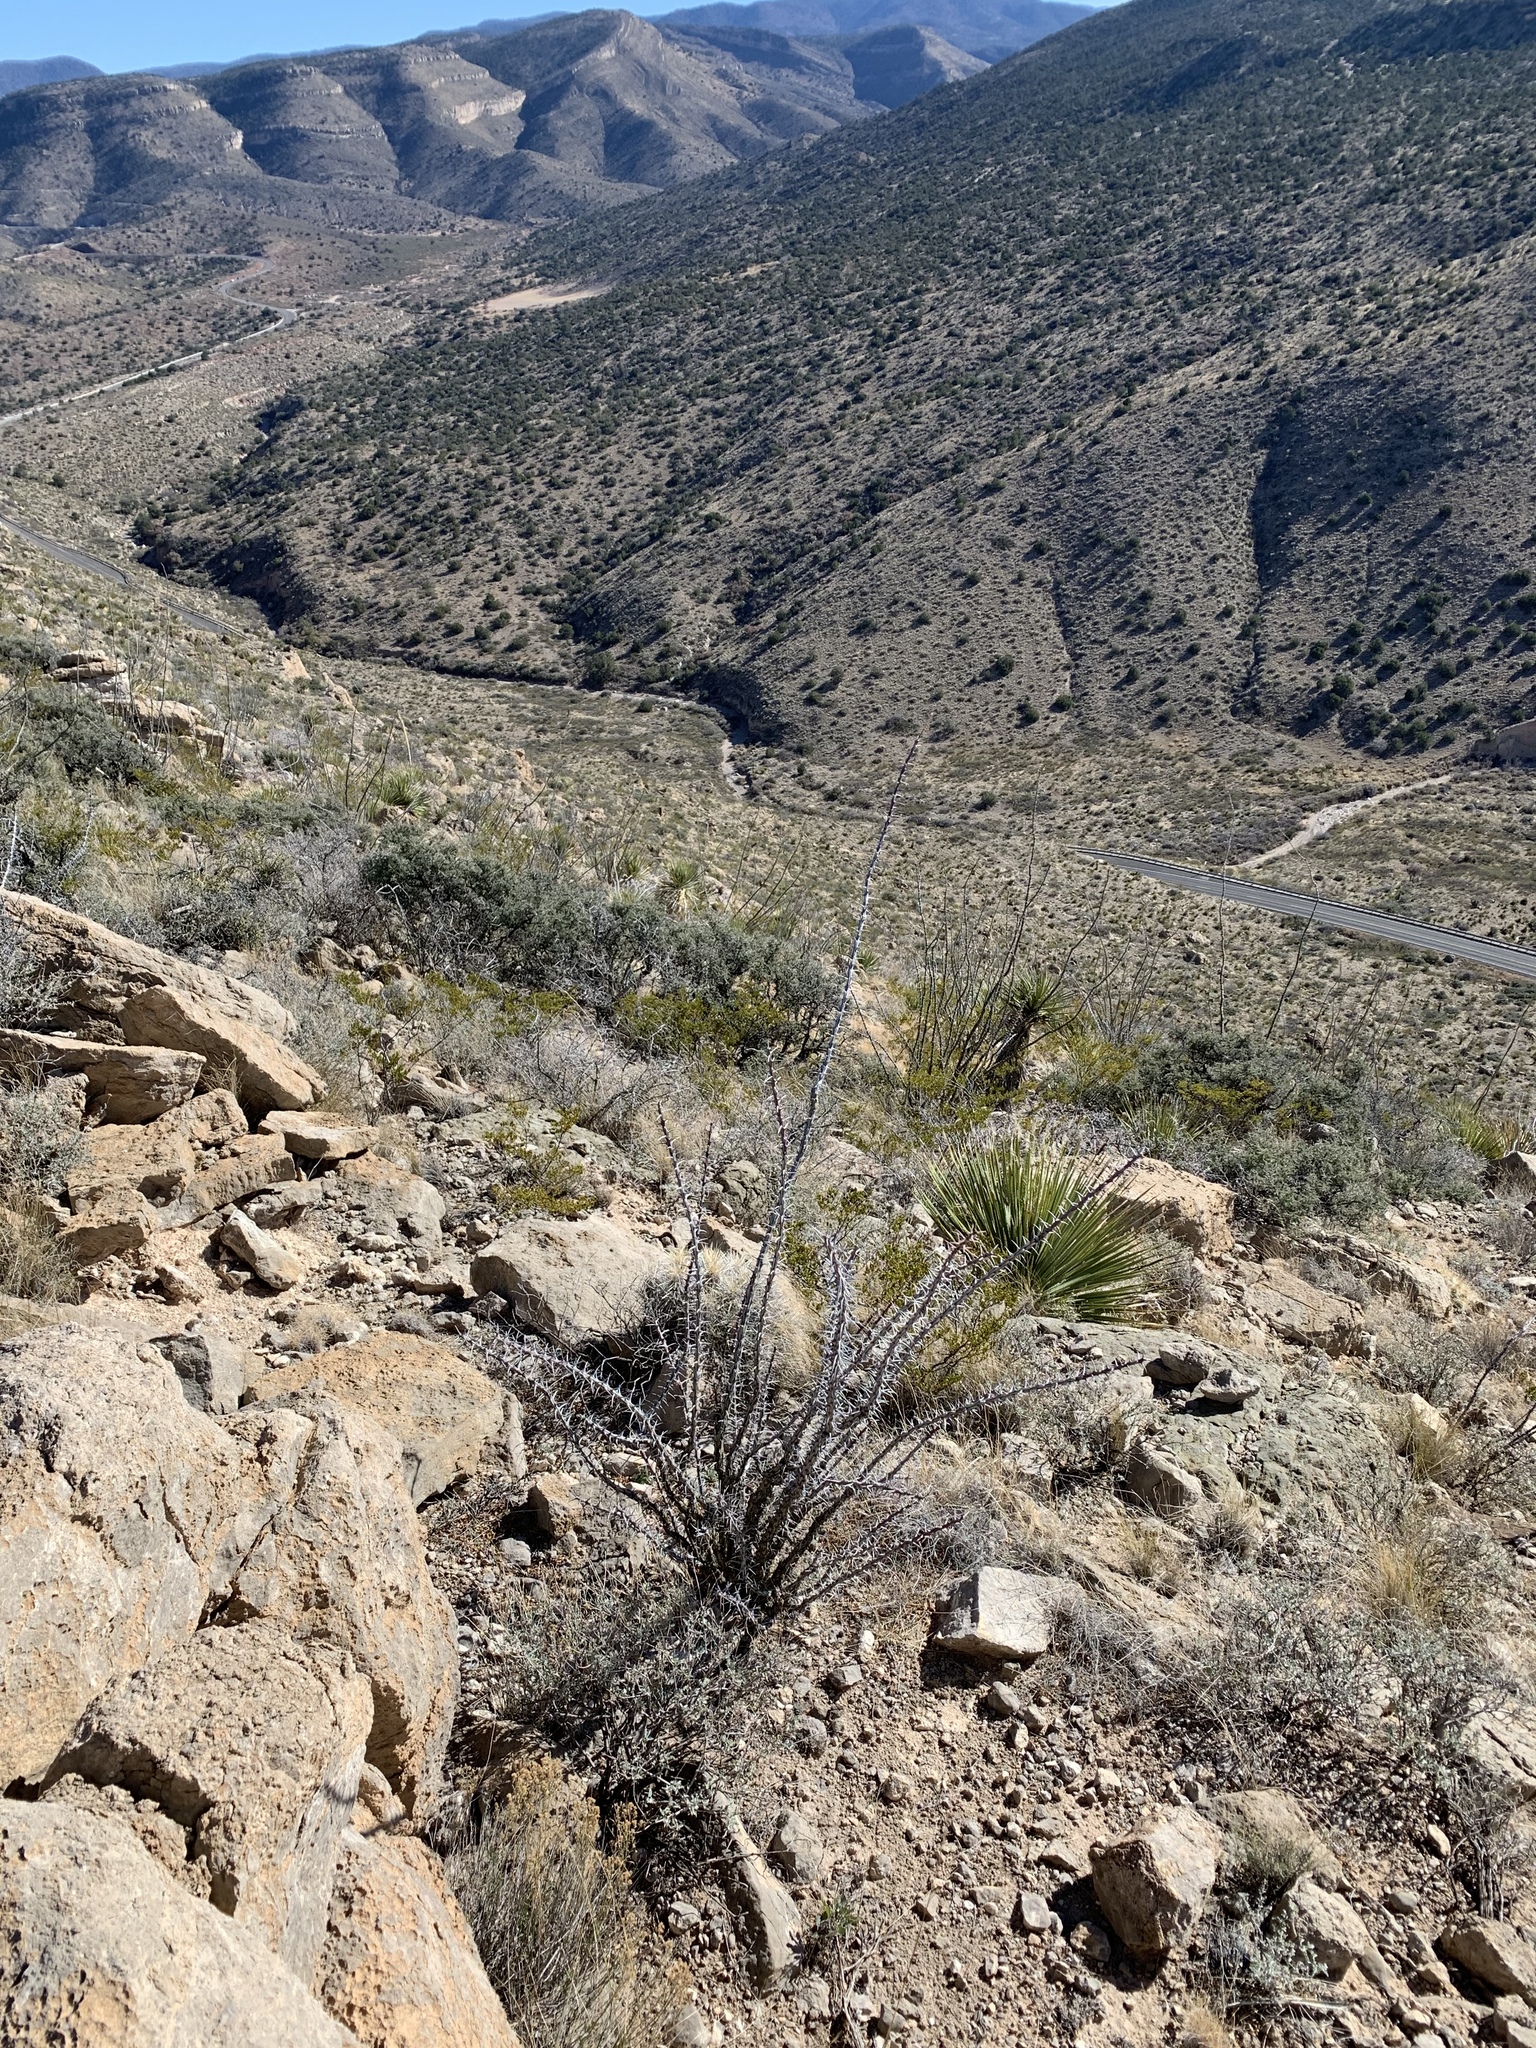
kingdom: Plantae
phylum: Tracheophyta
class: Magnoliopsida
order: Ericales
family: Fouquieriaceae
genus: Fouquieria
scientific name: Fouquieria splendens
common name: Vine-cactus
